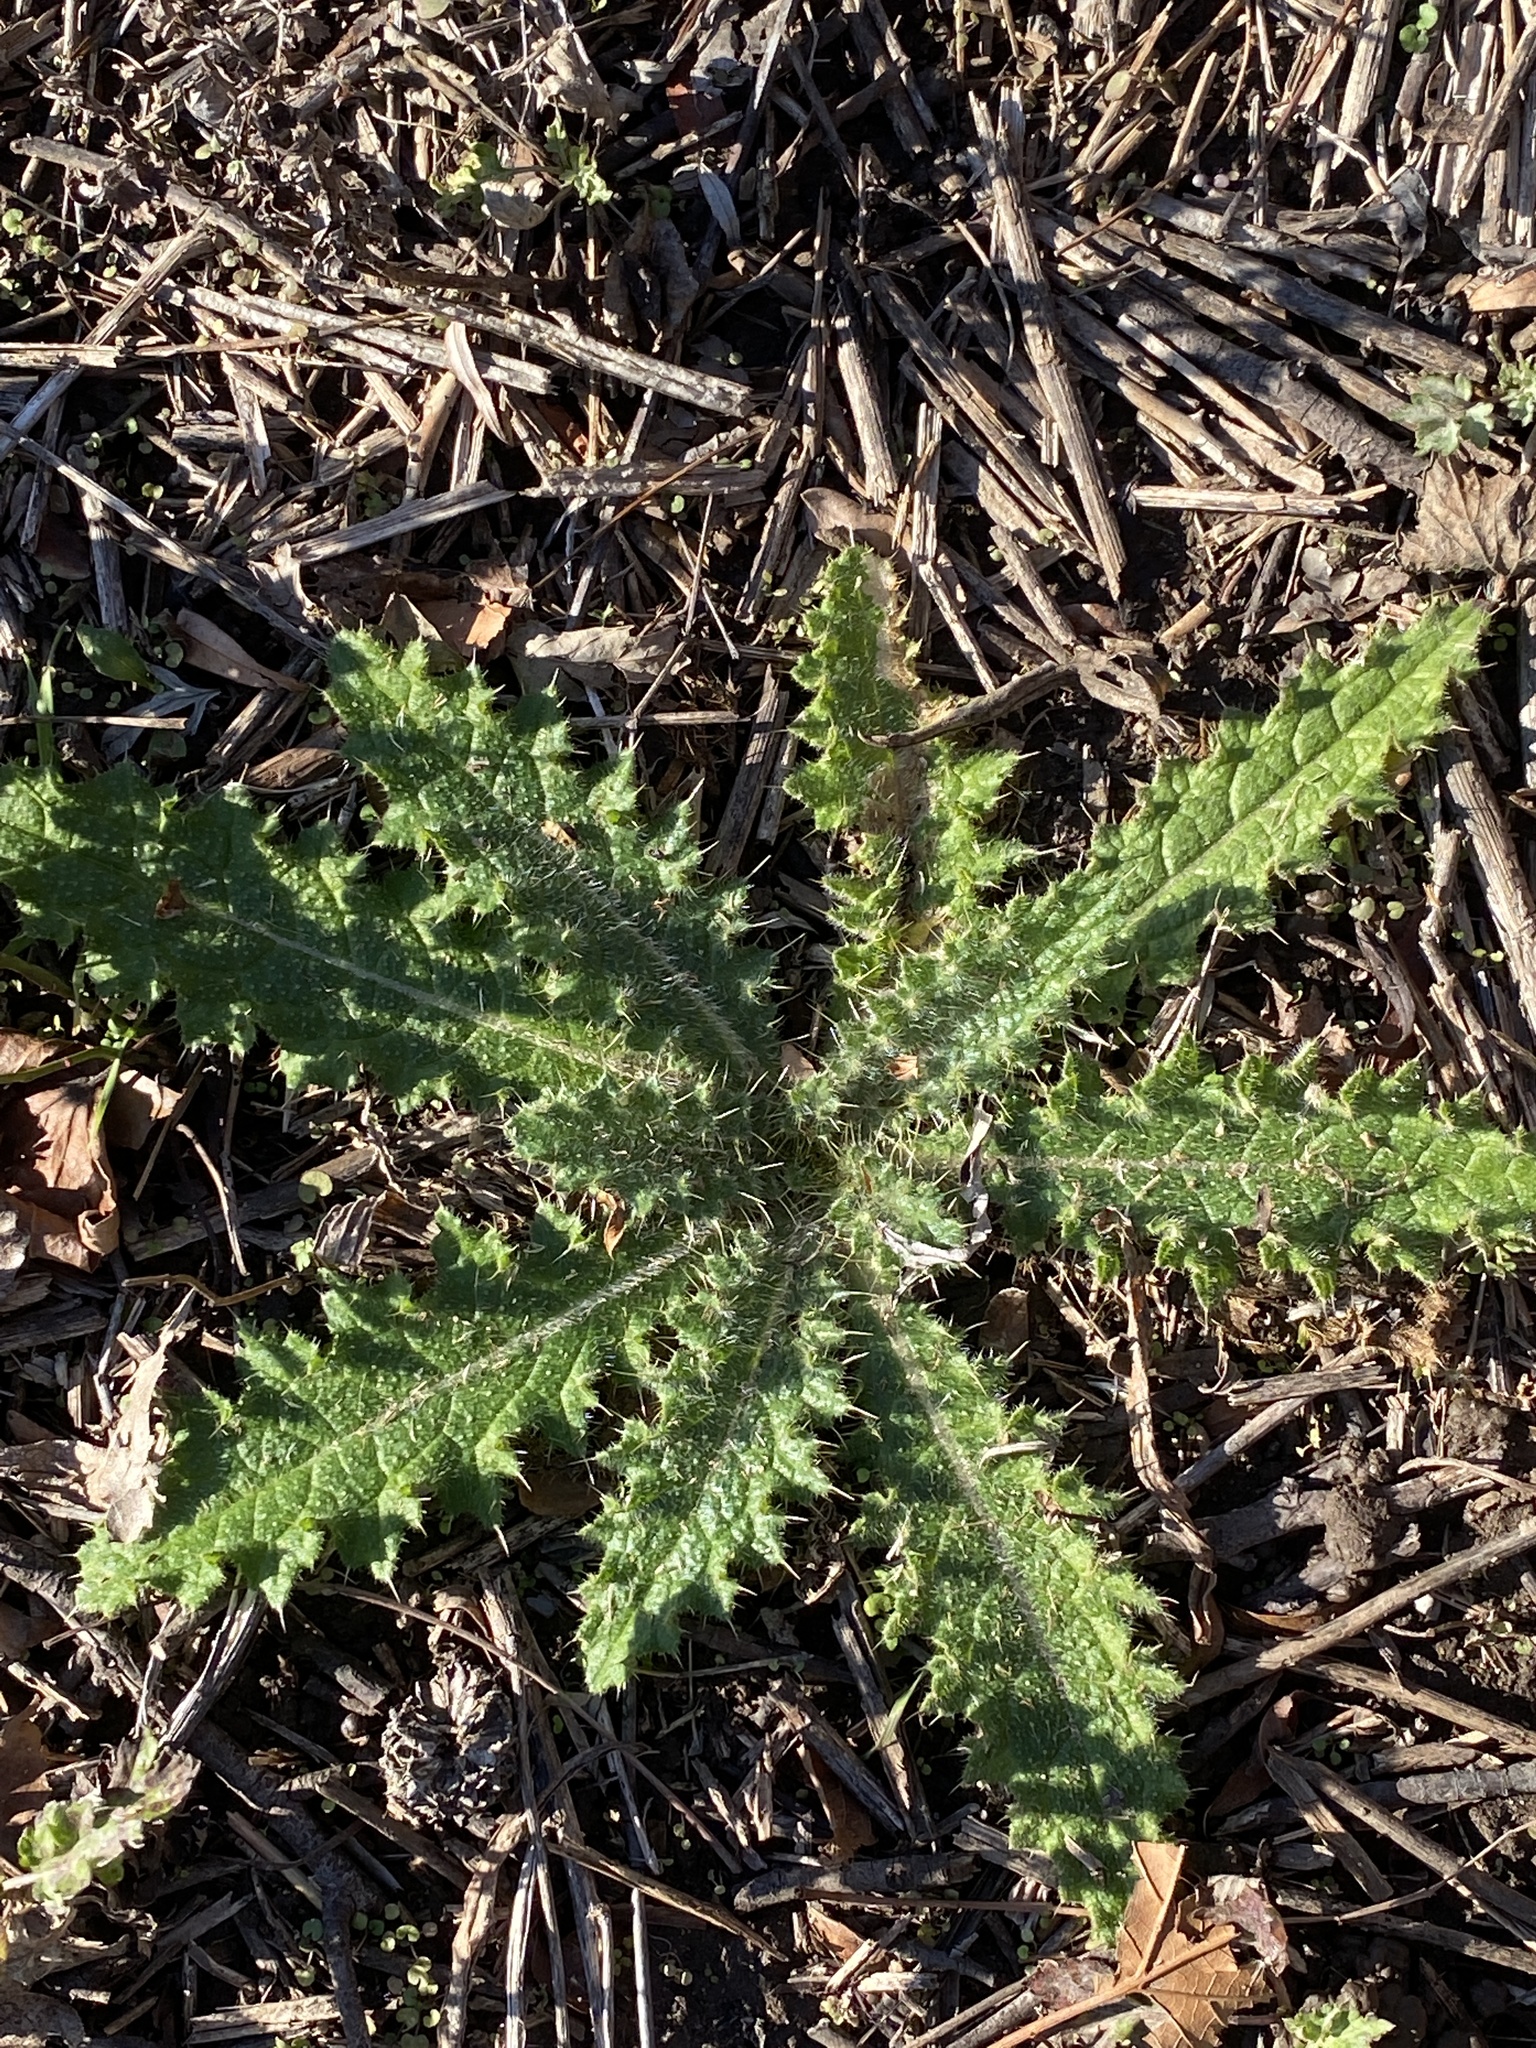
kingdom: Plantae
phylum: Tracheophyta
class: Magnoliopsida
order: Asterales
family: Asteraceae
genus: Cirsium
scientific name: Cirsium vulgare
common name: Bull thistle
